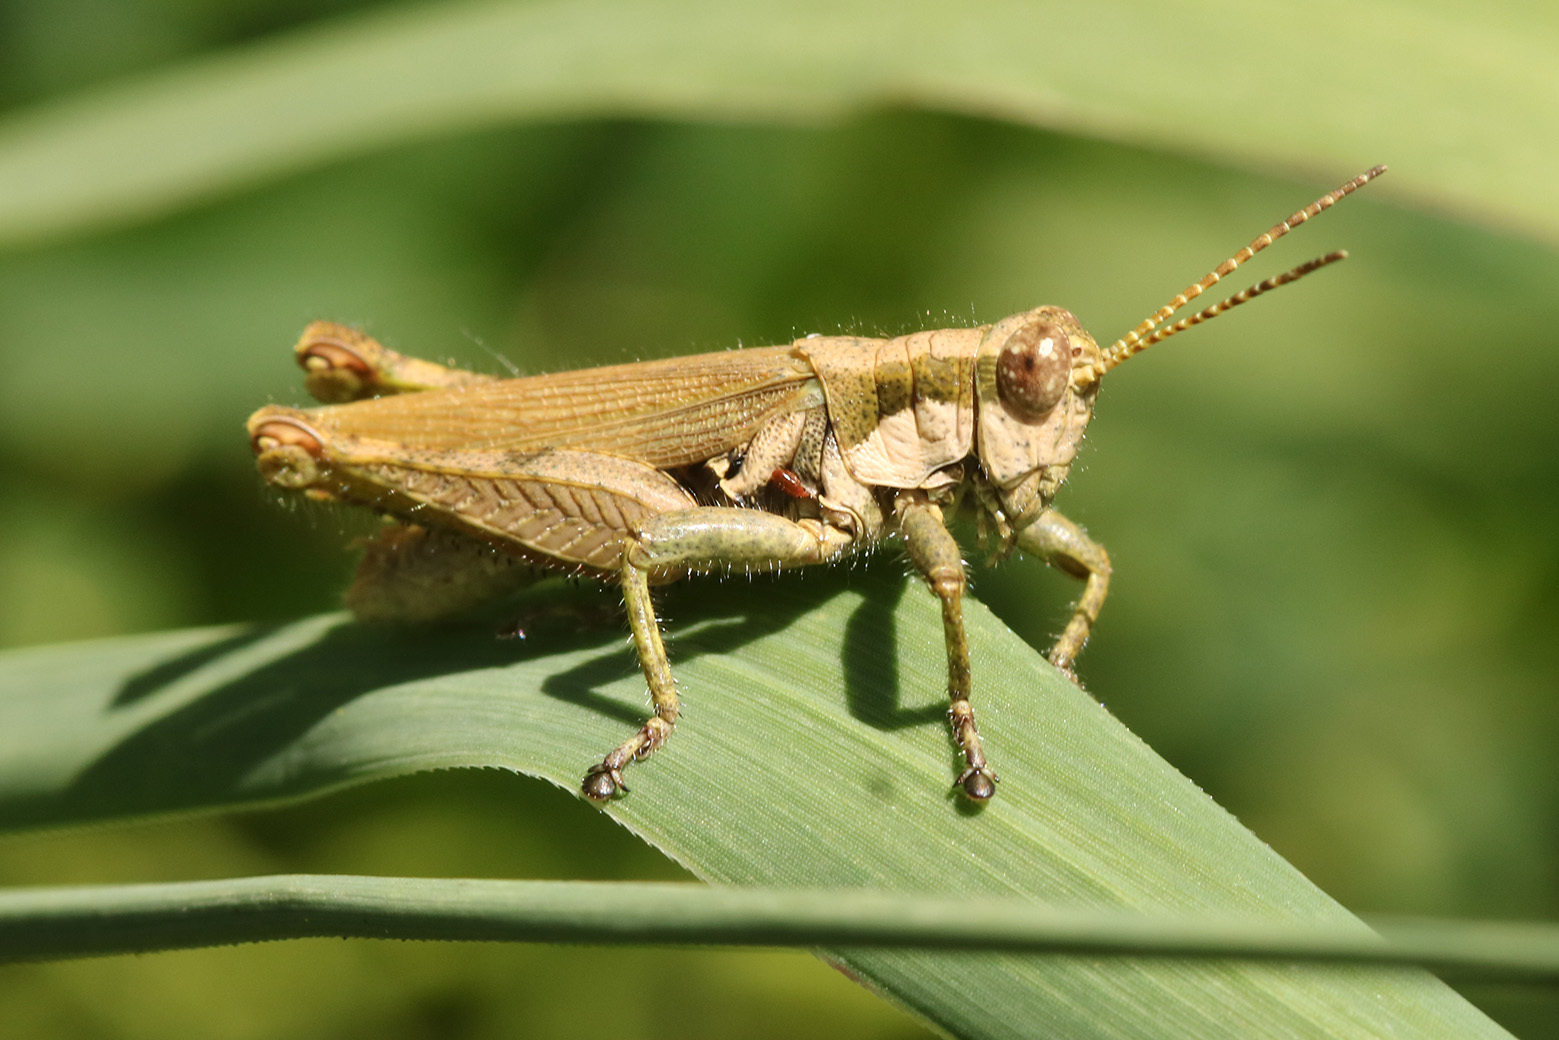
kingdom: Animalia
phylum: Arthropoda
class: Insecta
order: Orthoptera
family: Acrididae
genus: Ronderosia
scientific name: Ronderosia bergii
